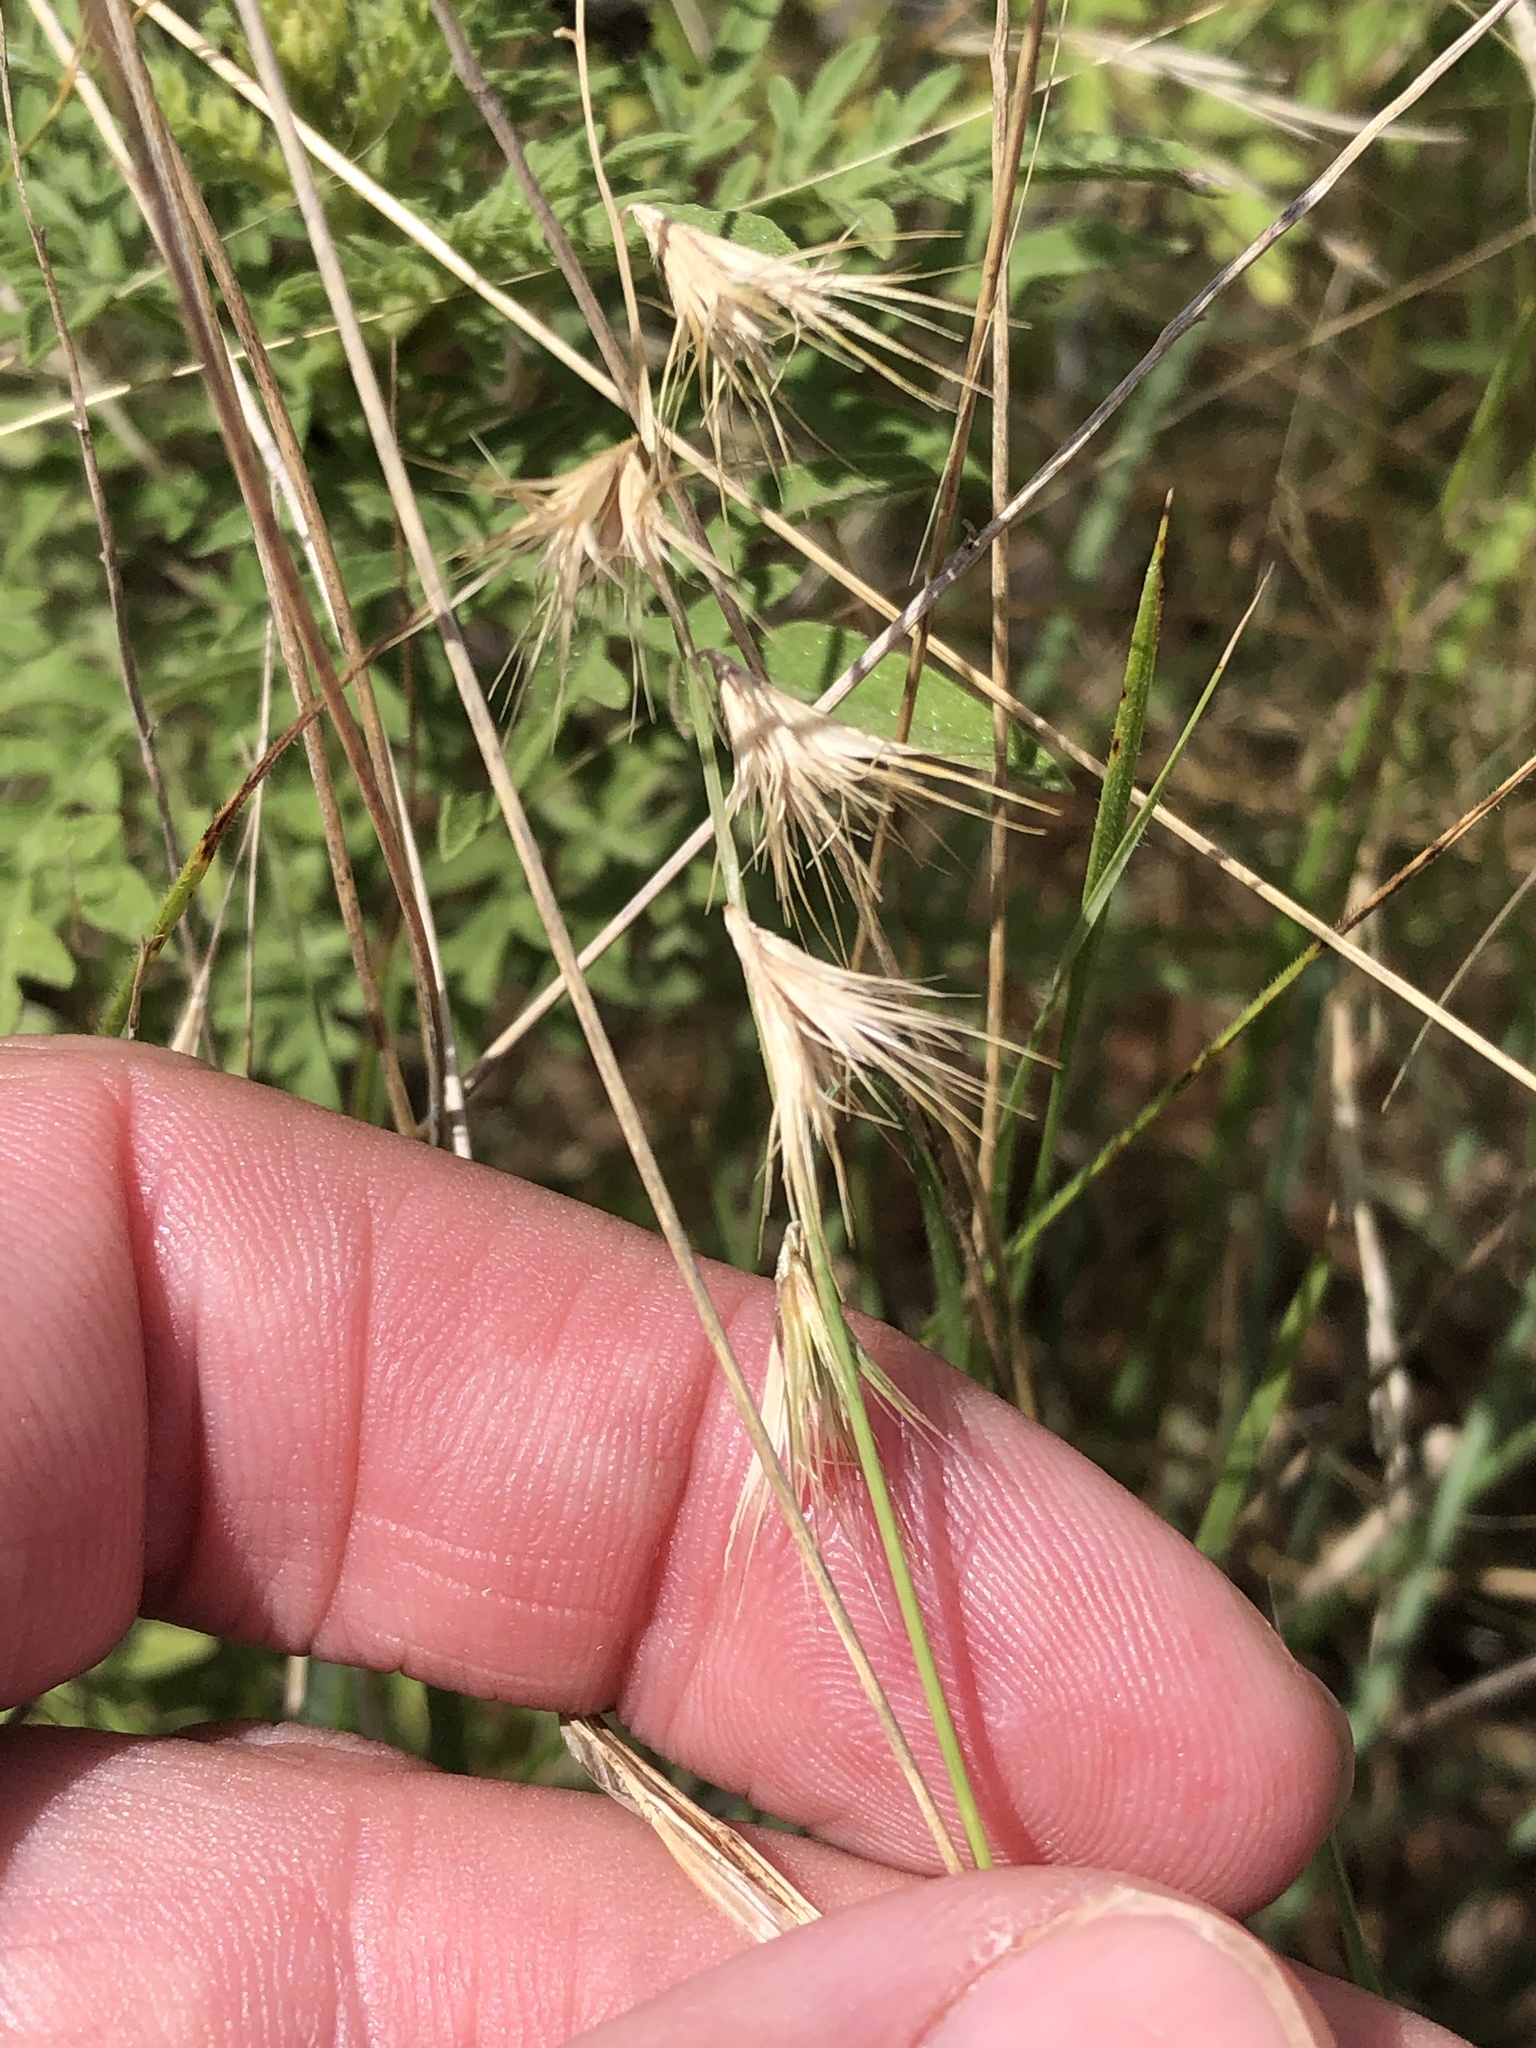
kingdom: Plantae
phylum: Tracheophyta
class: Liliopsida
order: Poales
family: Poaceae
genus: Bouteloua
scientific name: Bouteloua rigidiseta
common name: Texas grama
